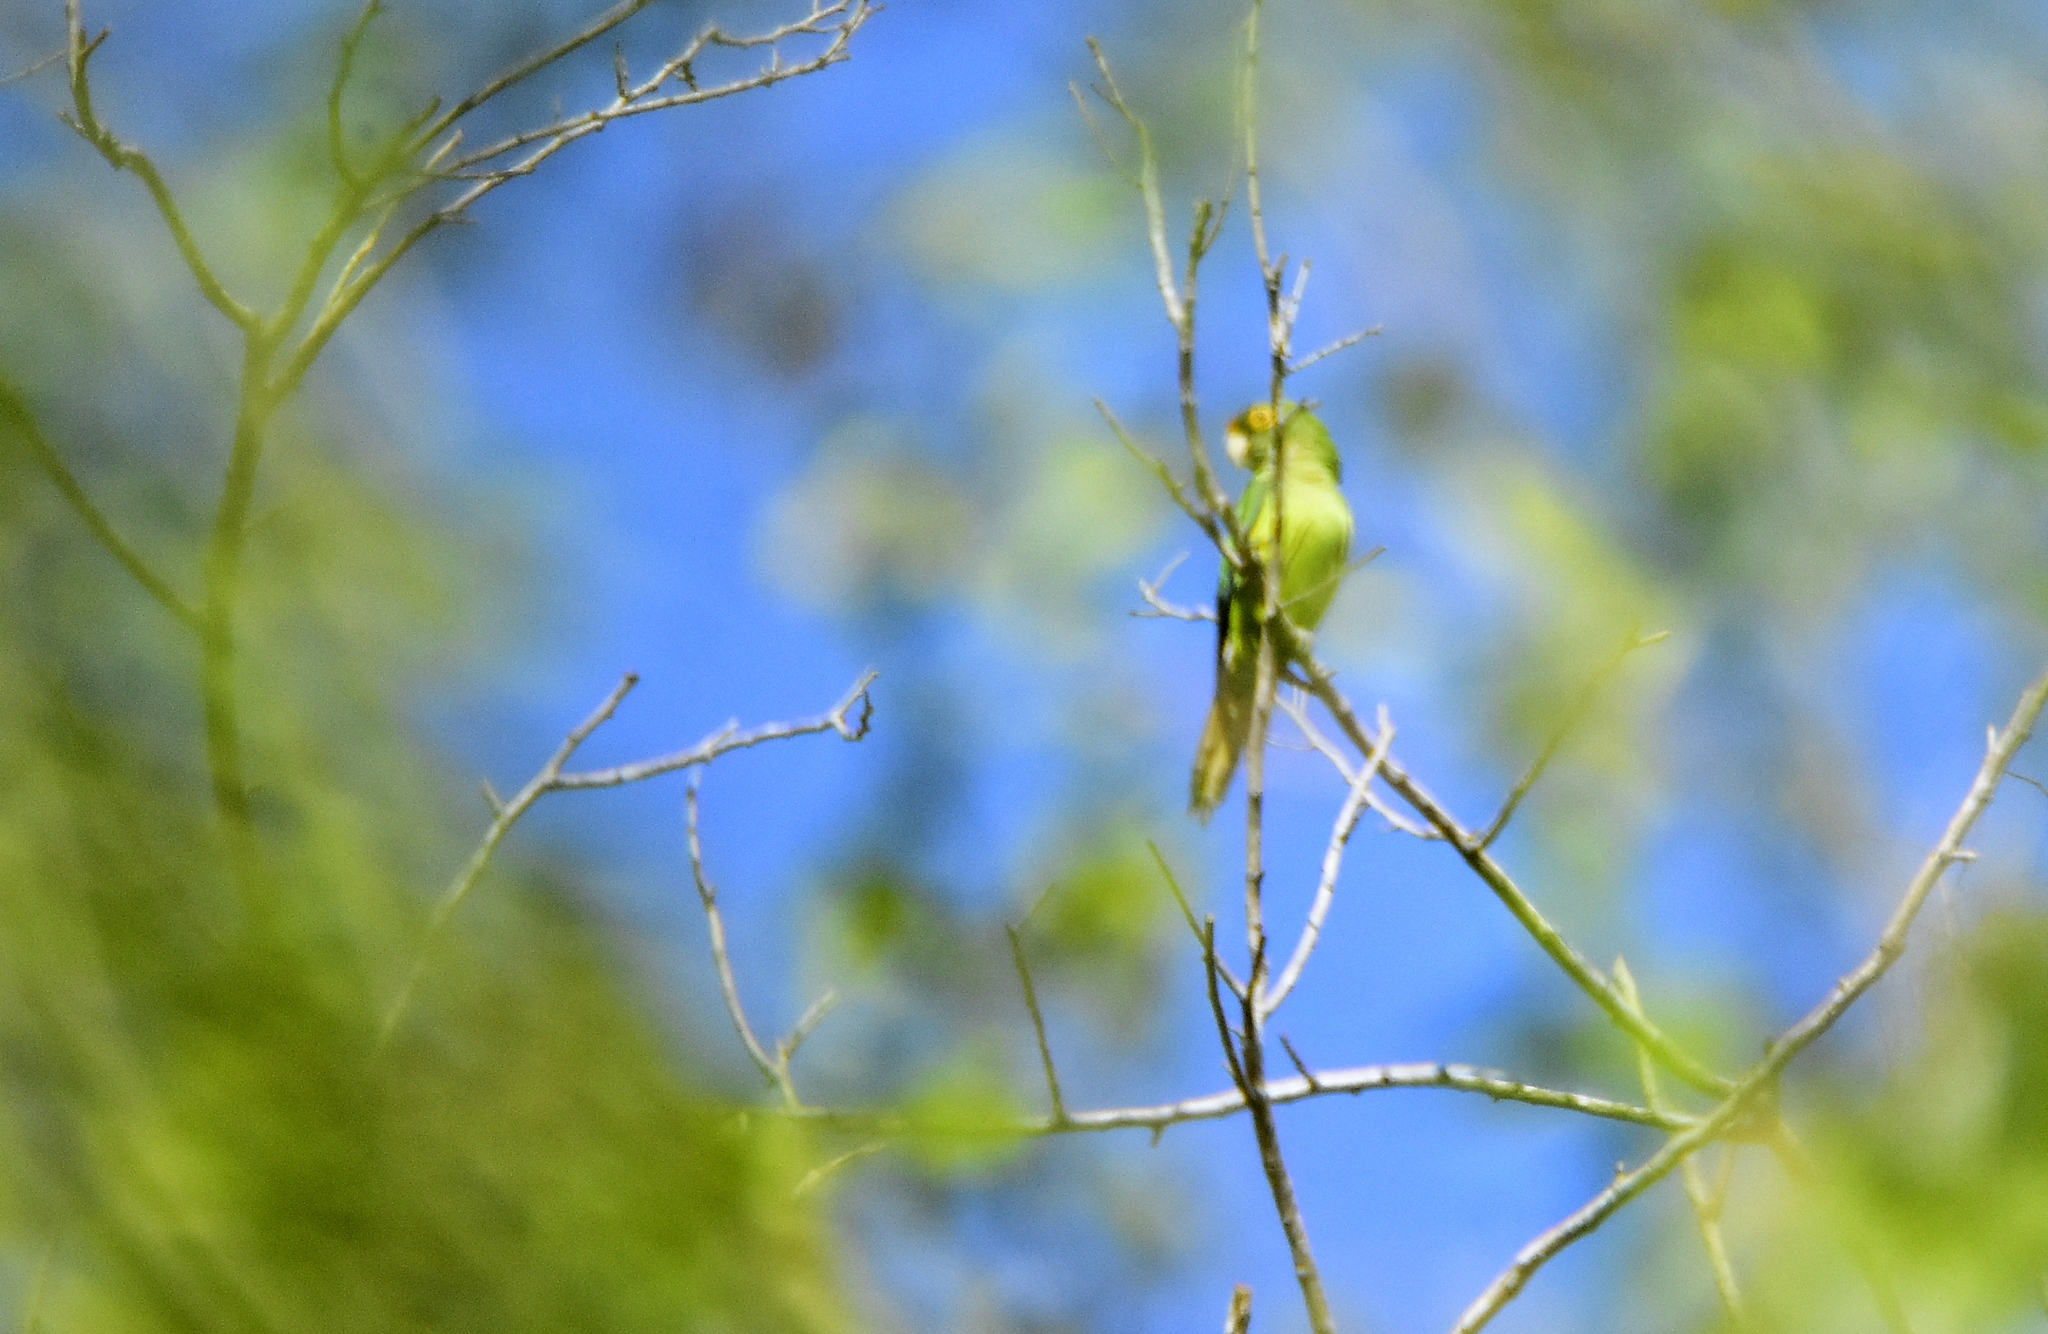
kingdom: Animalia
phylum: Chordata
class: Aves
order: Psittaciformes
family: Psittacidae
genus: Aratinga
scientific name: Aratinga canicularis
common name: Orange-fronted parakeet
